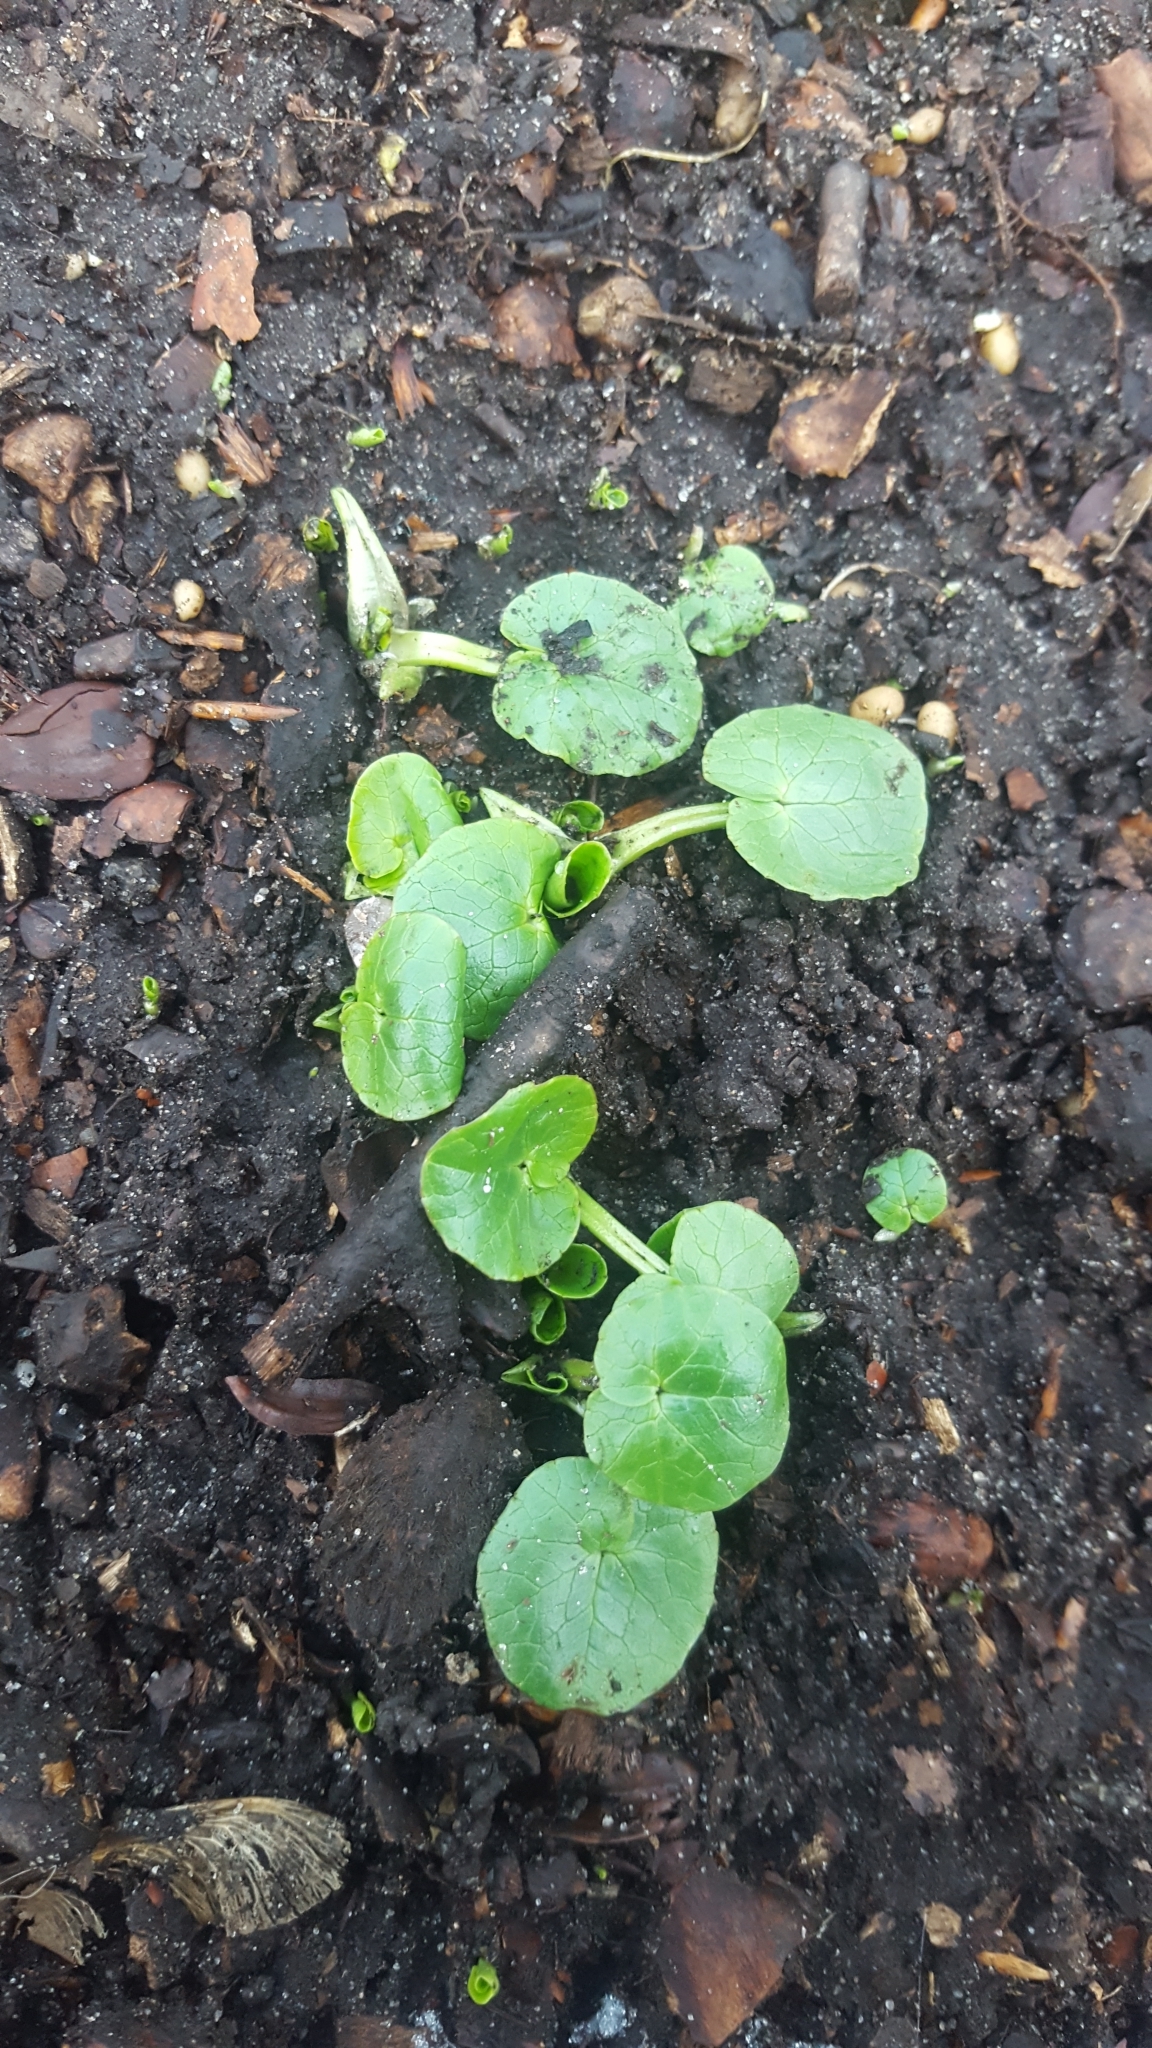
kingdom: Plantae
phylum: Tracheophyta
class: Magnoliopsida
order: Ranunculales
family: Ranunculaceae
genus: Ficaria
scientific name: Ficaria verna
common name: Lesser celandine
